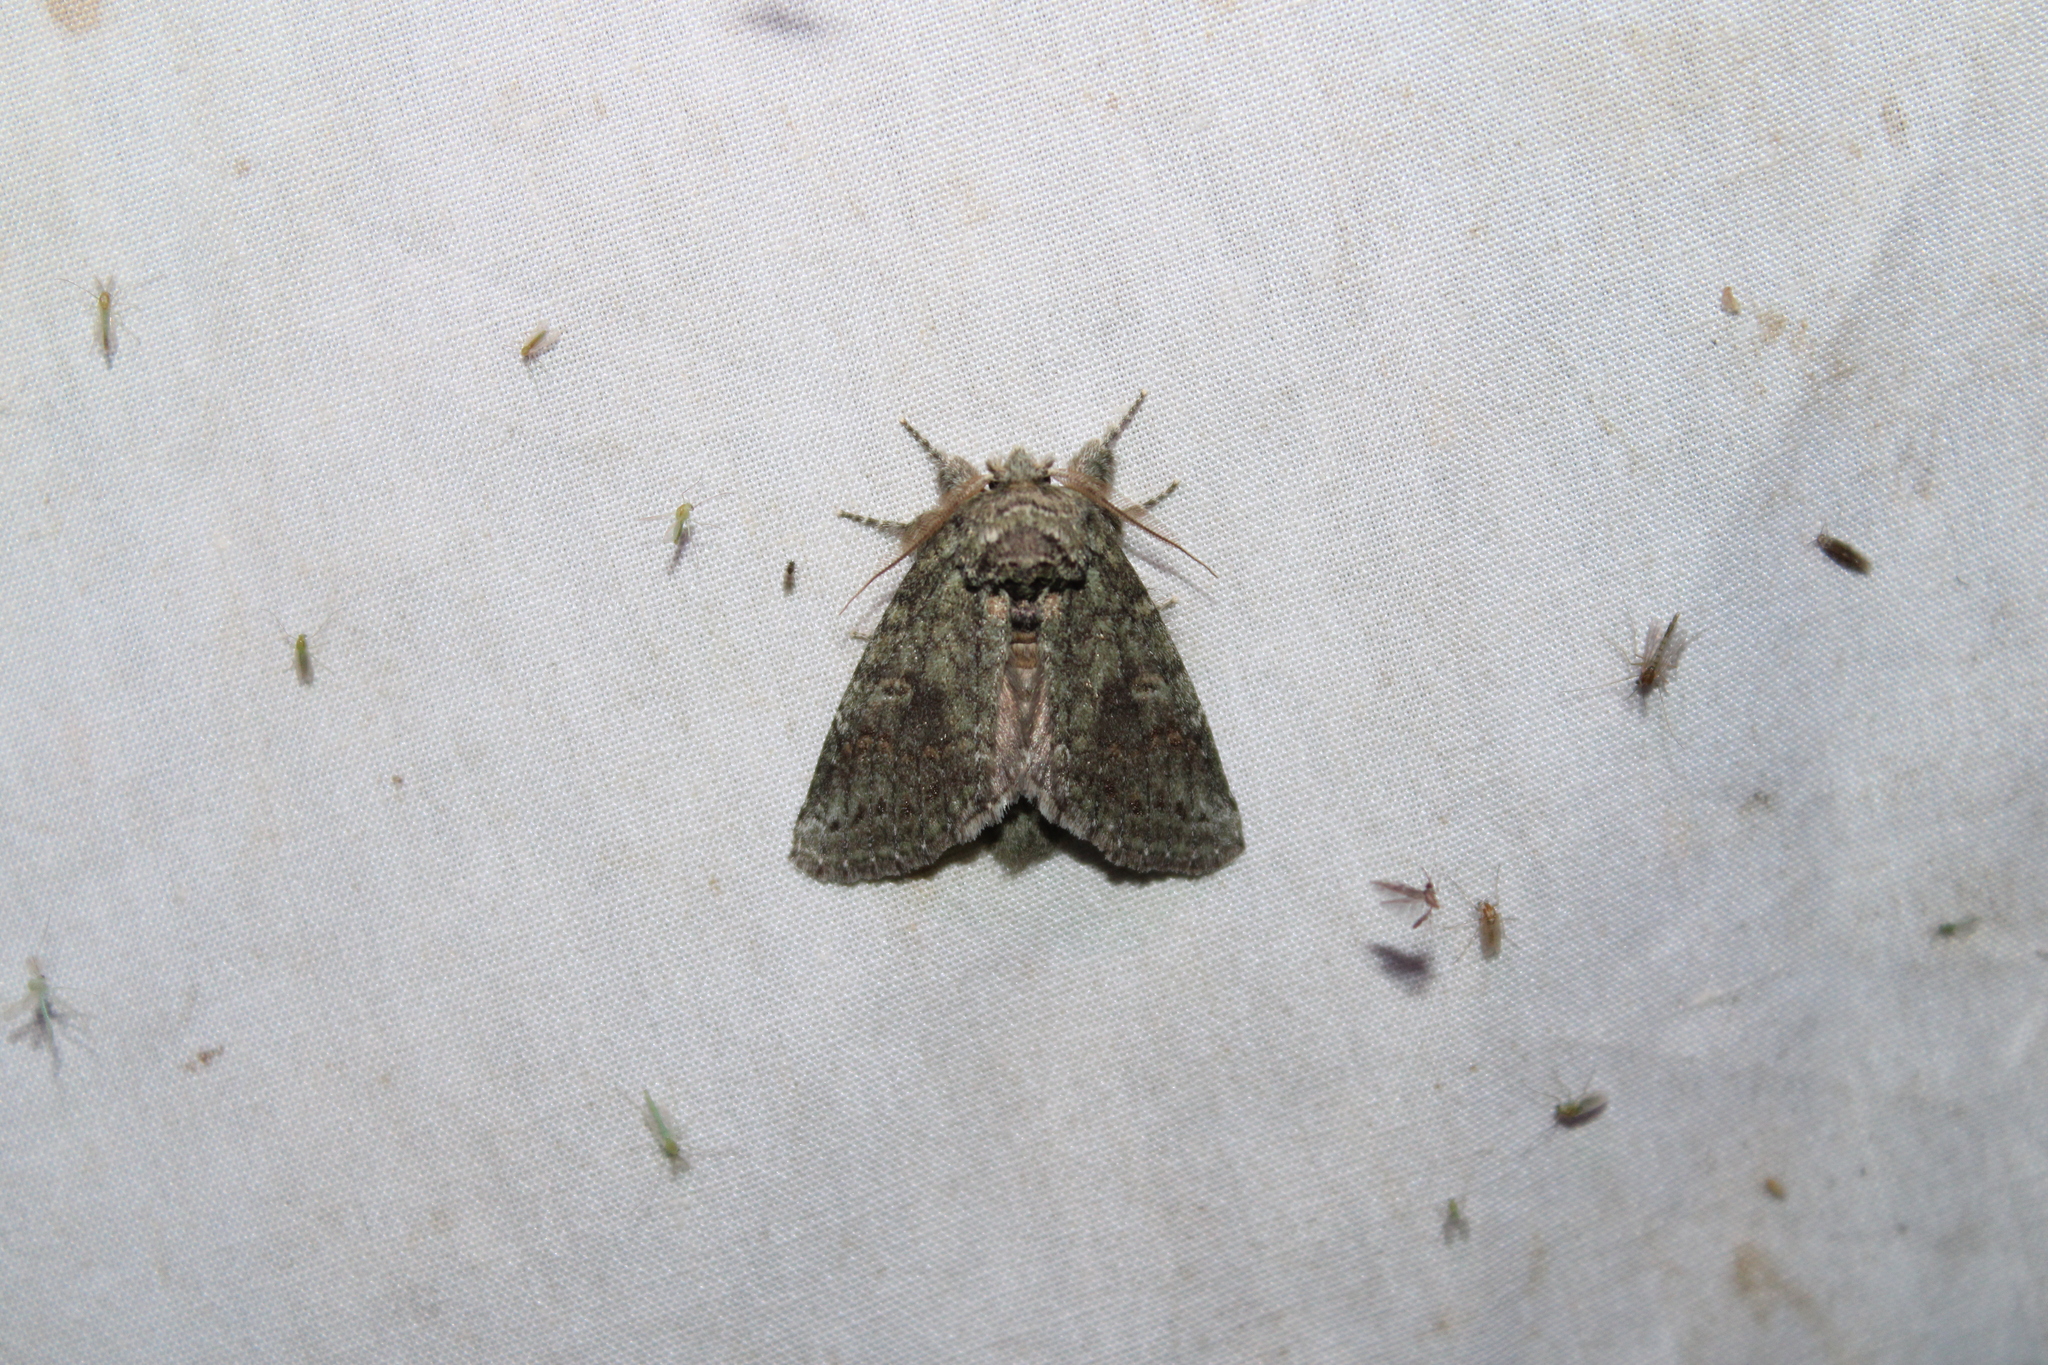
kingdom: Animalia
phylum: Arthropoda
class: Insecta
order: Lepidoptera
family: Notodontidae
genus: Disphragis
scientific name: Disphragis Cecrita guttivitta
